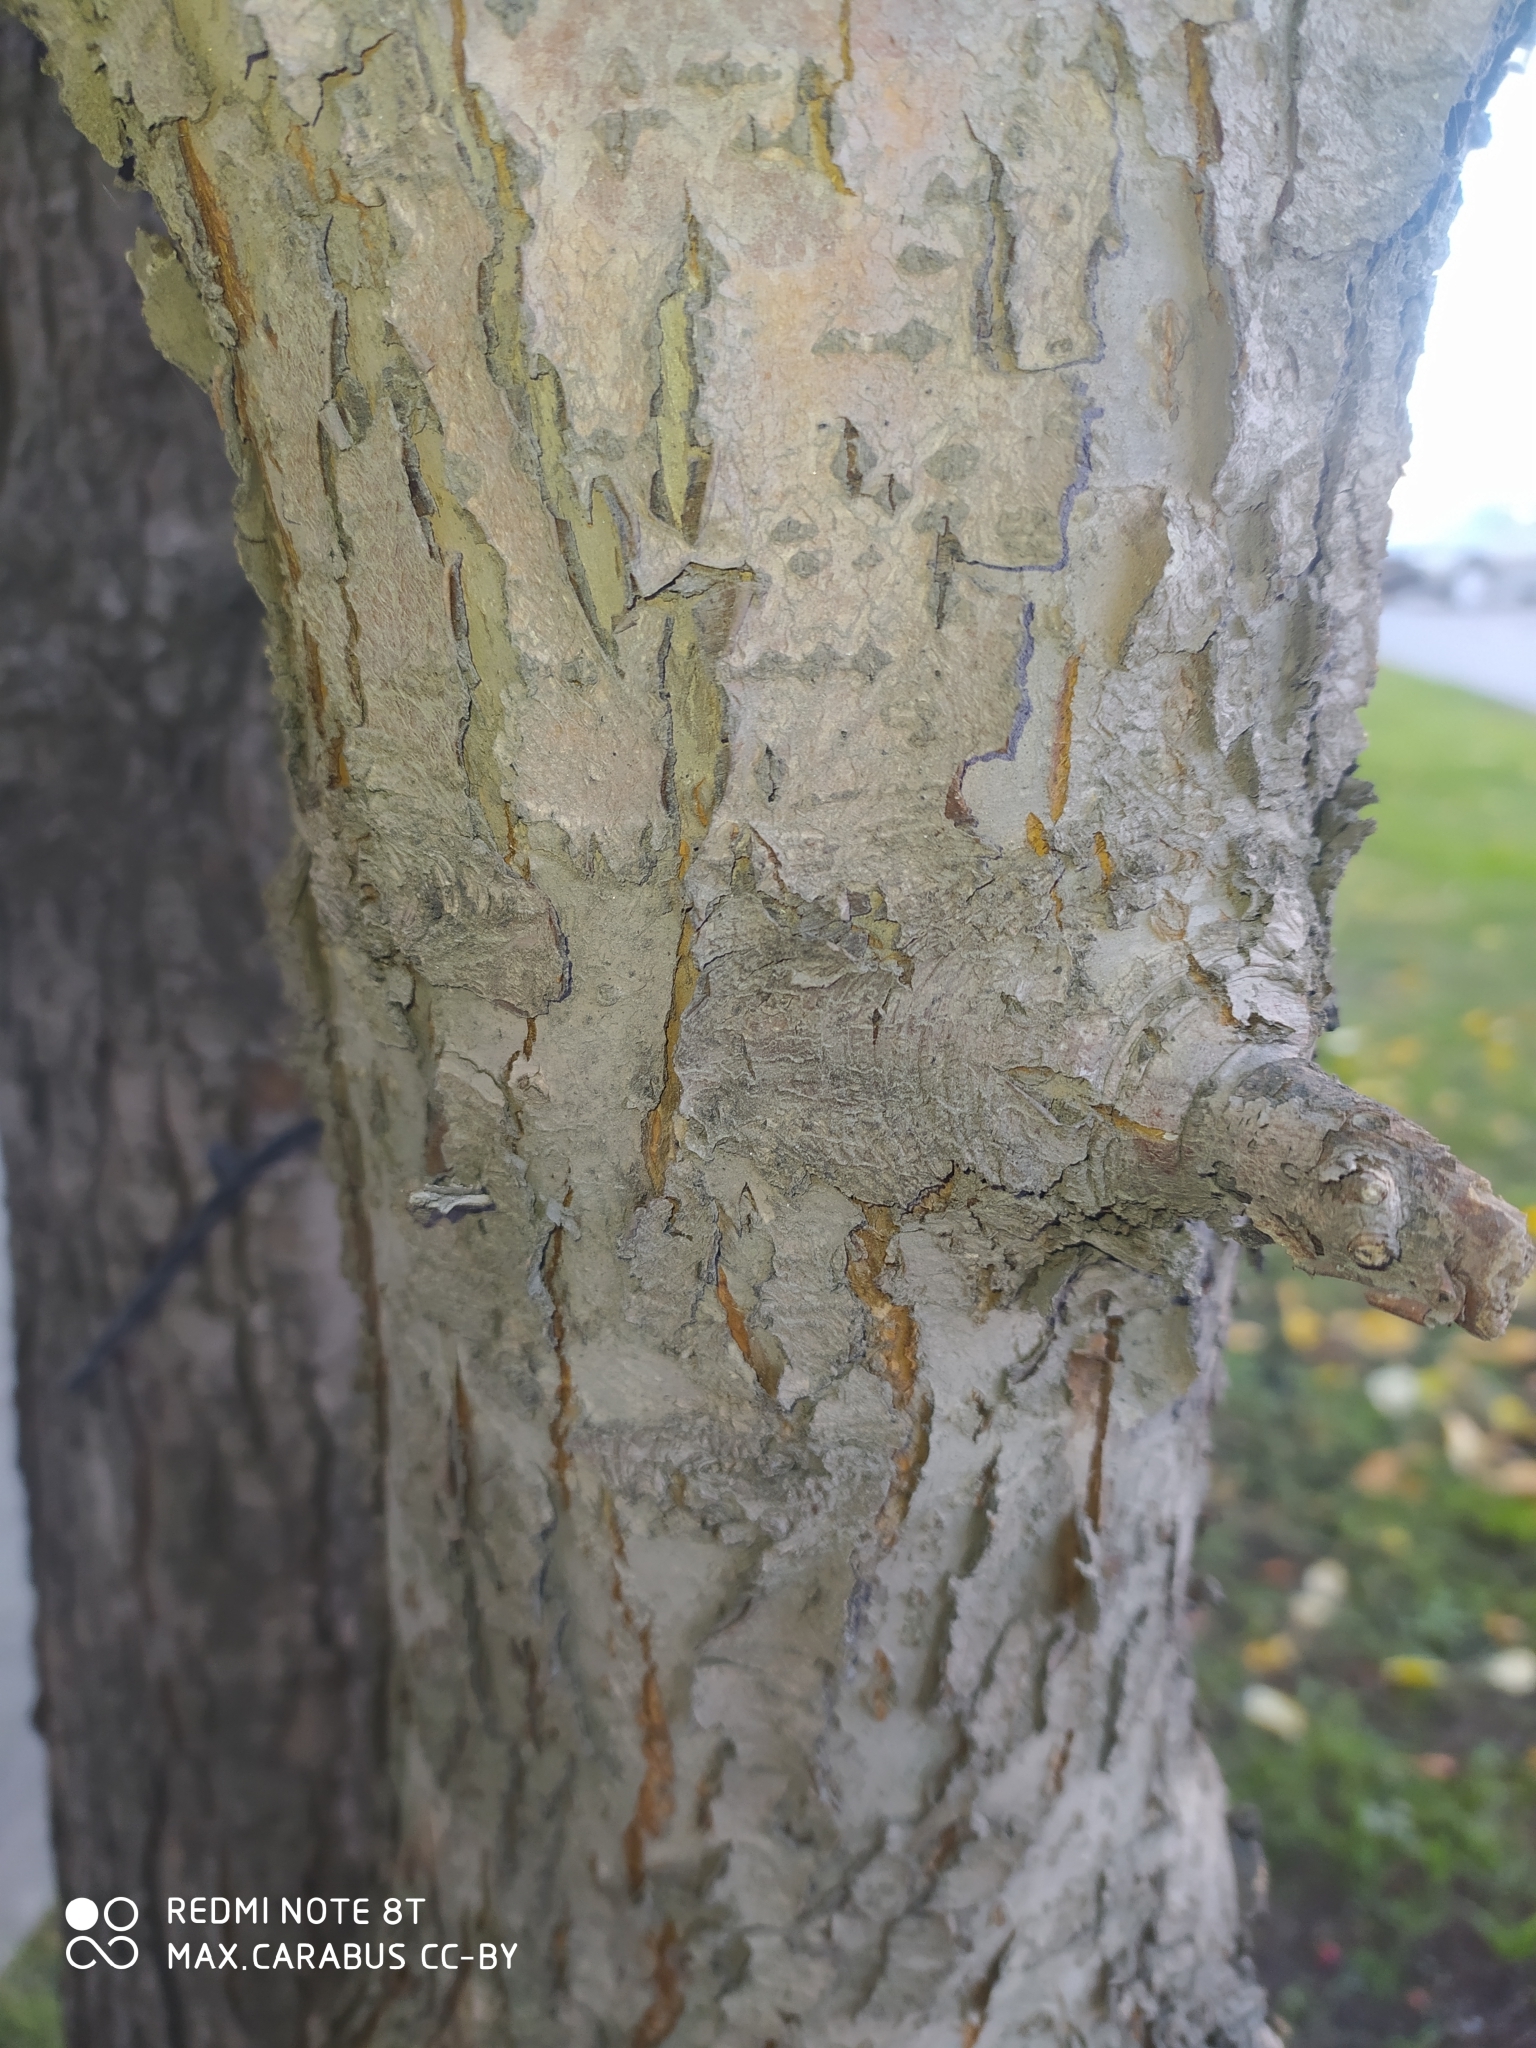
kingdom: Plantae
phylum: Tracheophyta
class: Magnoliopsida
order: Rosales
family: Rosaceae
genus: Malus
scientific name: Malus baccata
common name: Siberian crab
